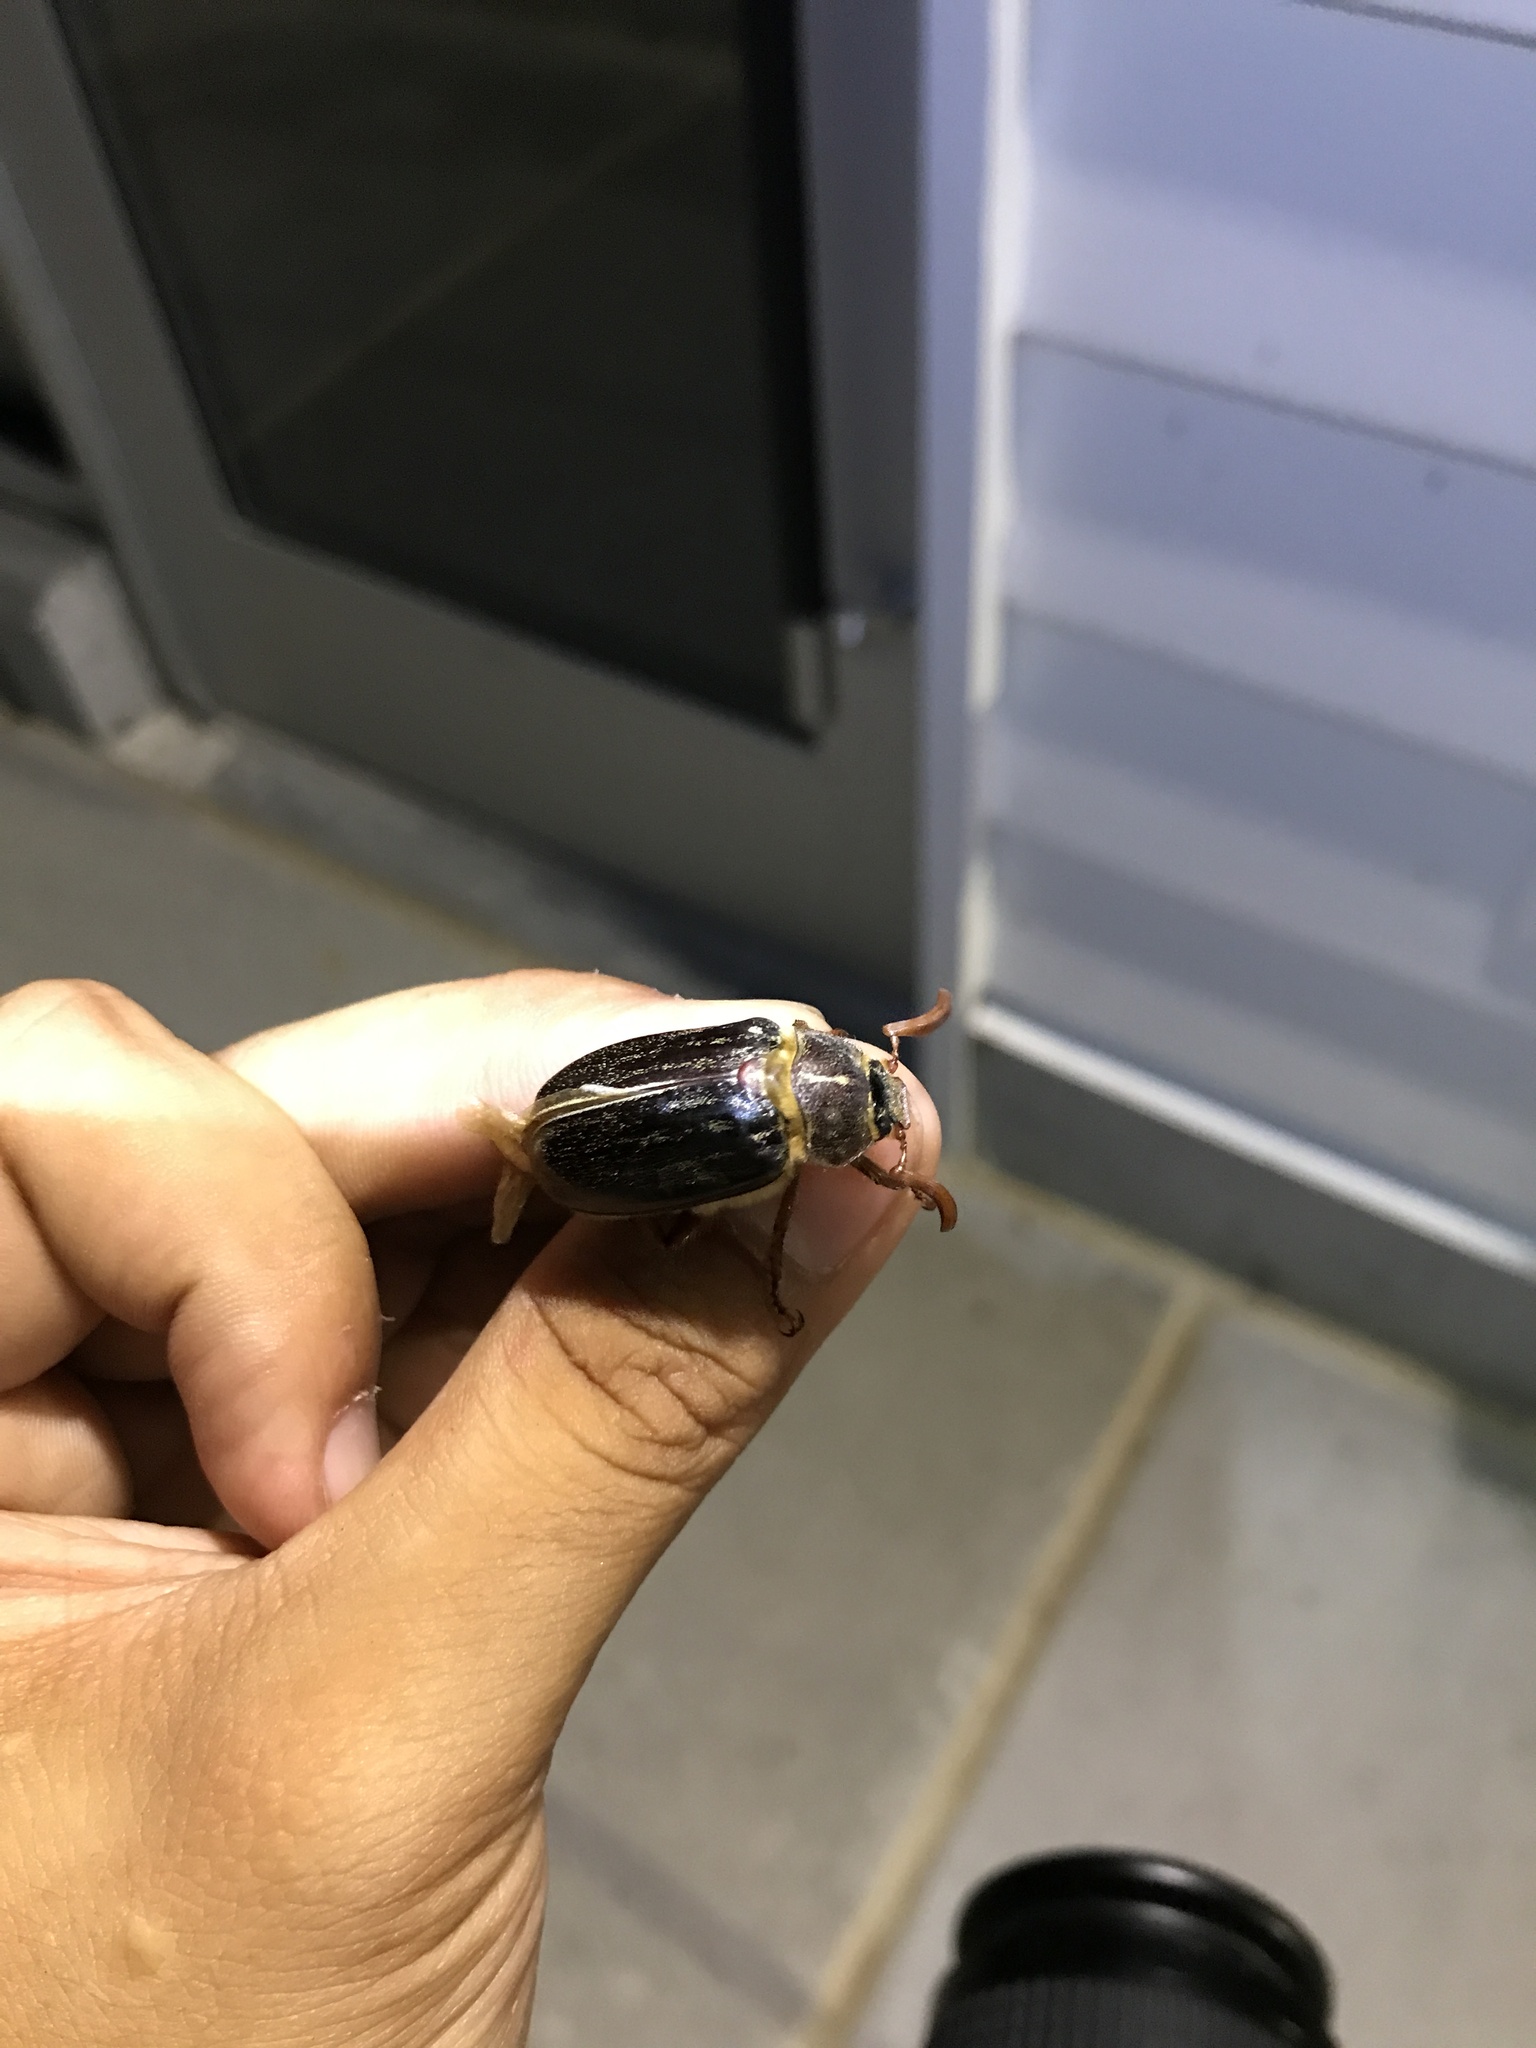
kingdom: Animalia
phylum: Arthropoda
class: Insecta
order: Coleoptera
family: Scarabaeidae
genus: Polyphylla
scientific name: Polyphylla hammondi
